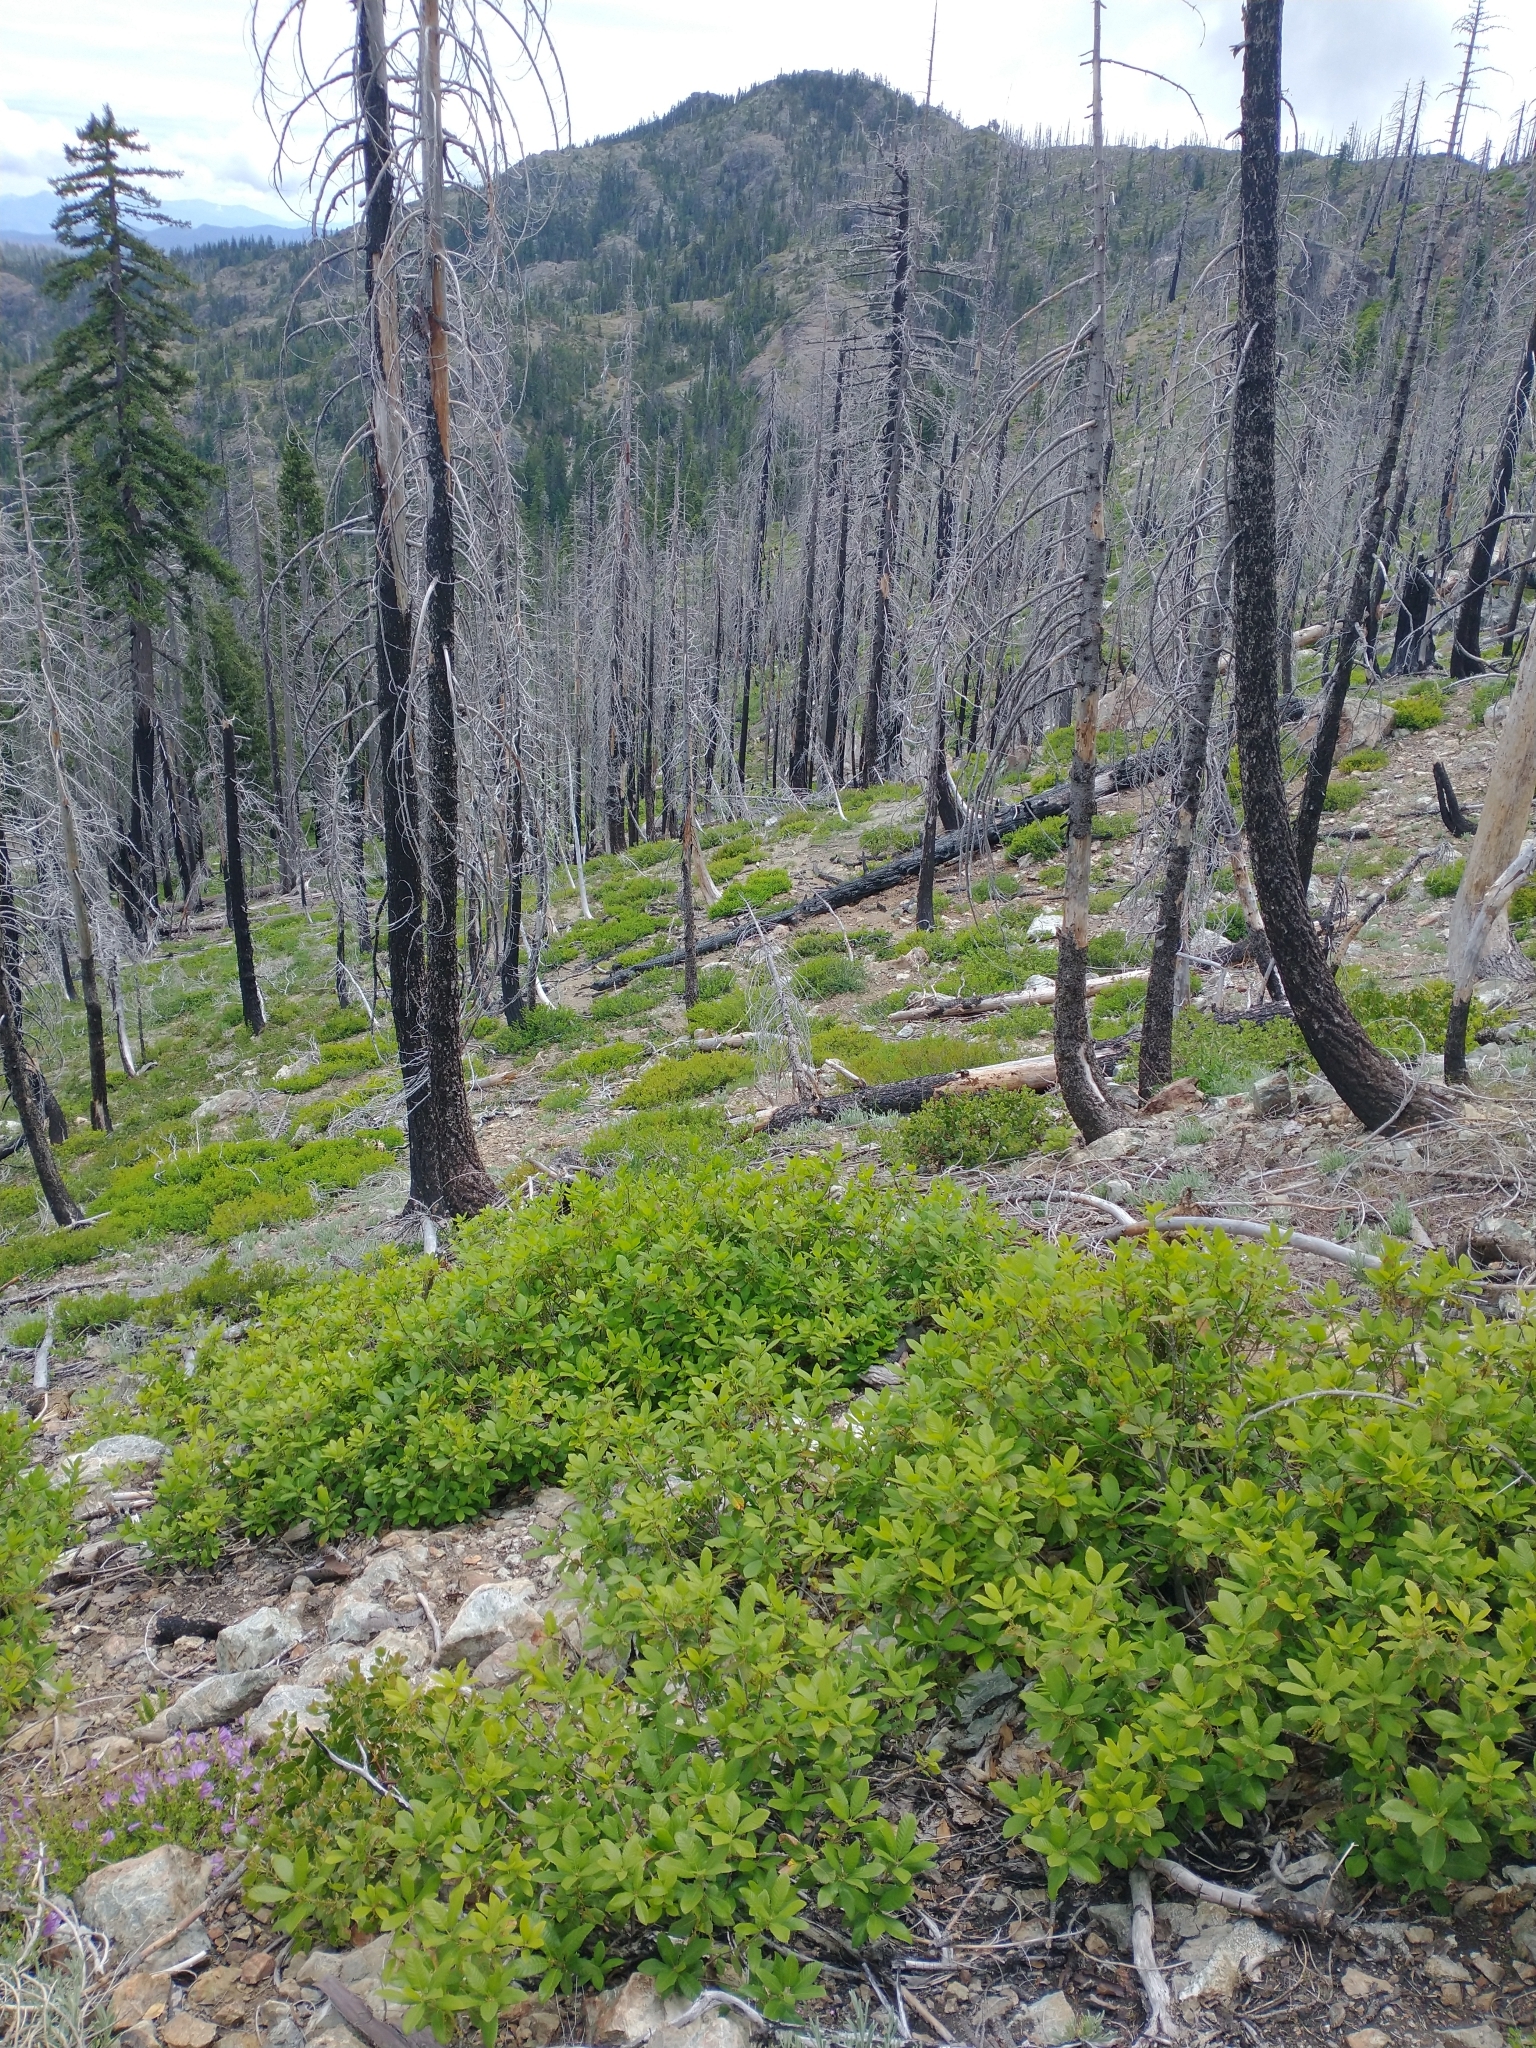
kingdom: Plantae
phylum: Tracheophyta
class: Magnoliopsida
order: Fagales
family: Fagaceae
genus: Quercus
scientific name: Quercus sadleriana
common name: Deer oak
